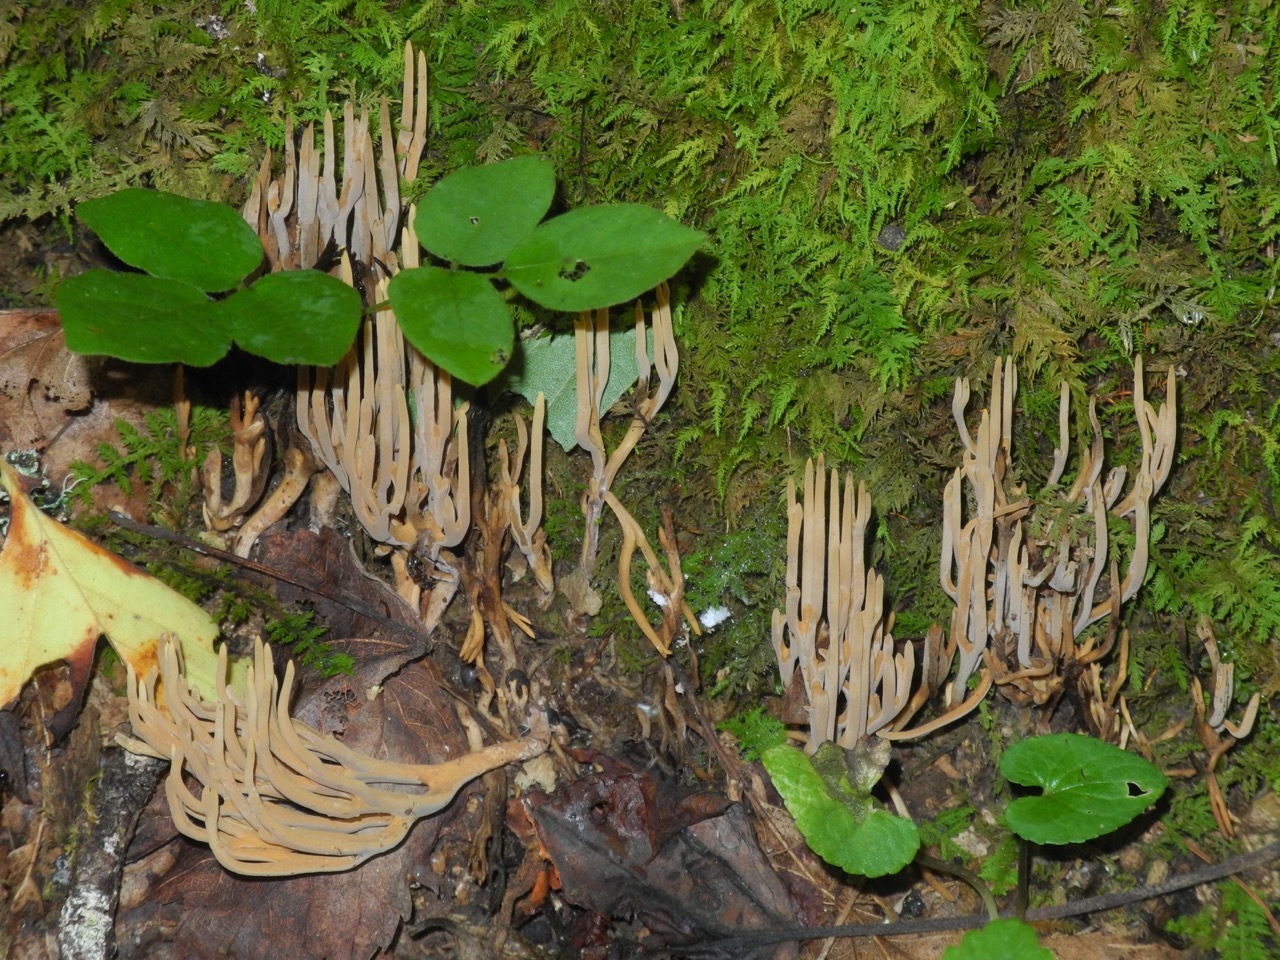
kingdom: Fungi
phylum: Basidiomycota
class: Agaricomycetes
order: Agaricales
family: Clavariaceae
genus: Clavaria
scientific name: Clavaria fumosa
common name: Smoky spindles
